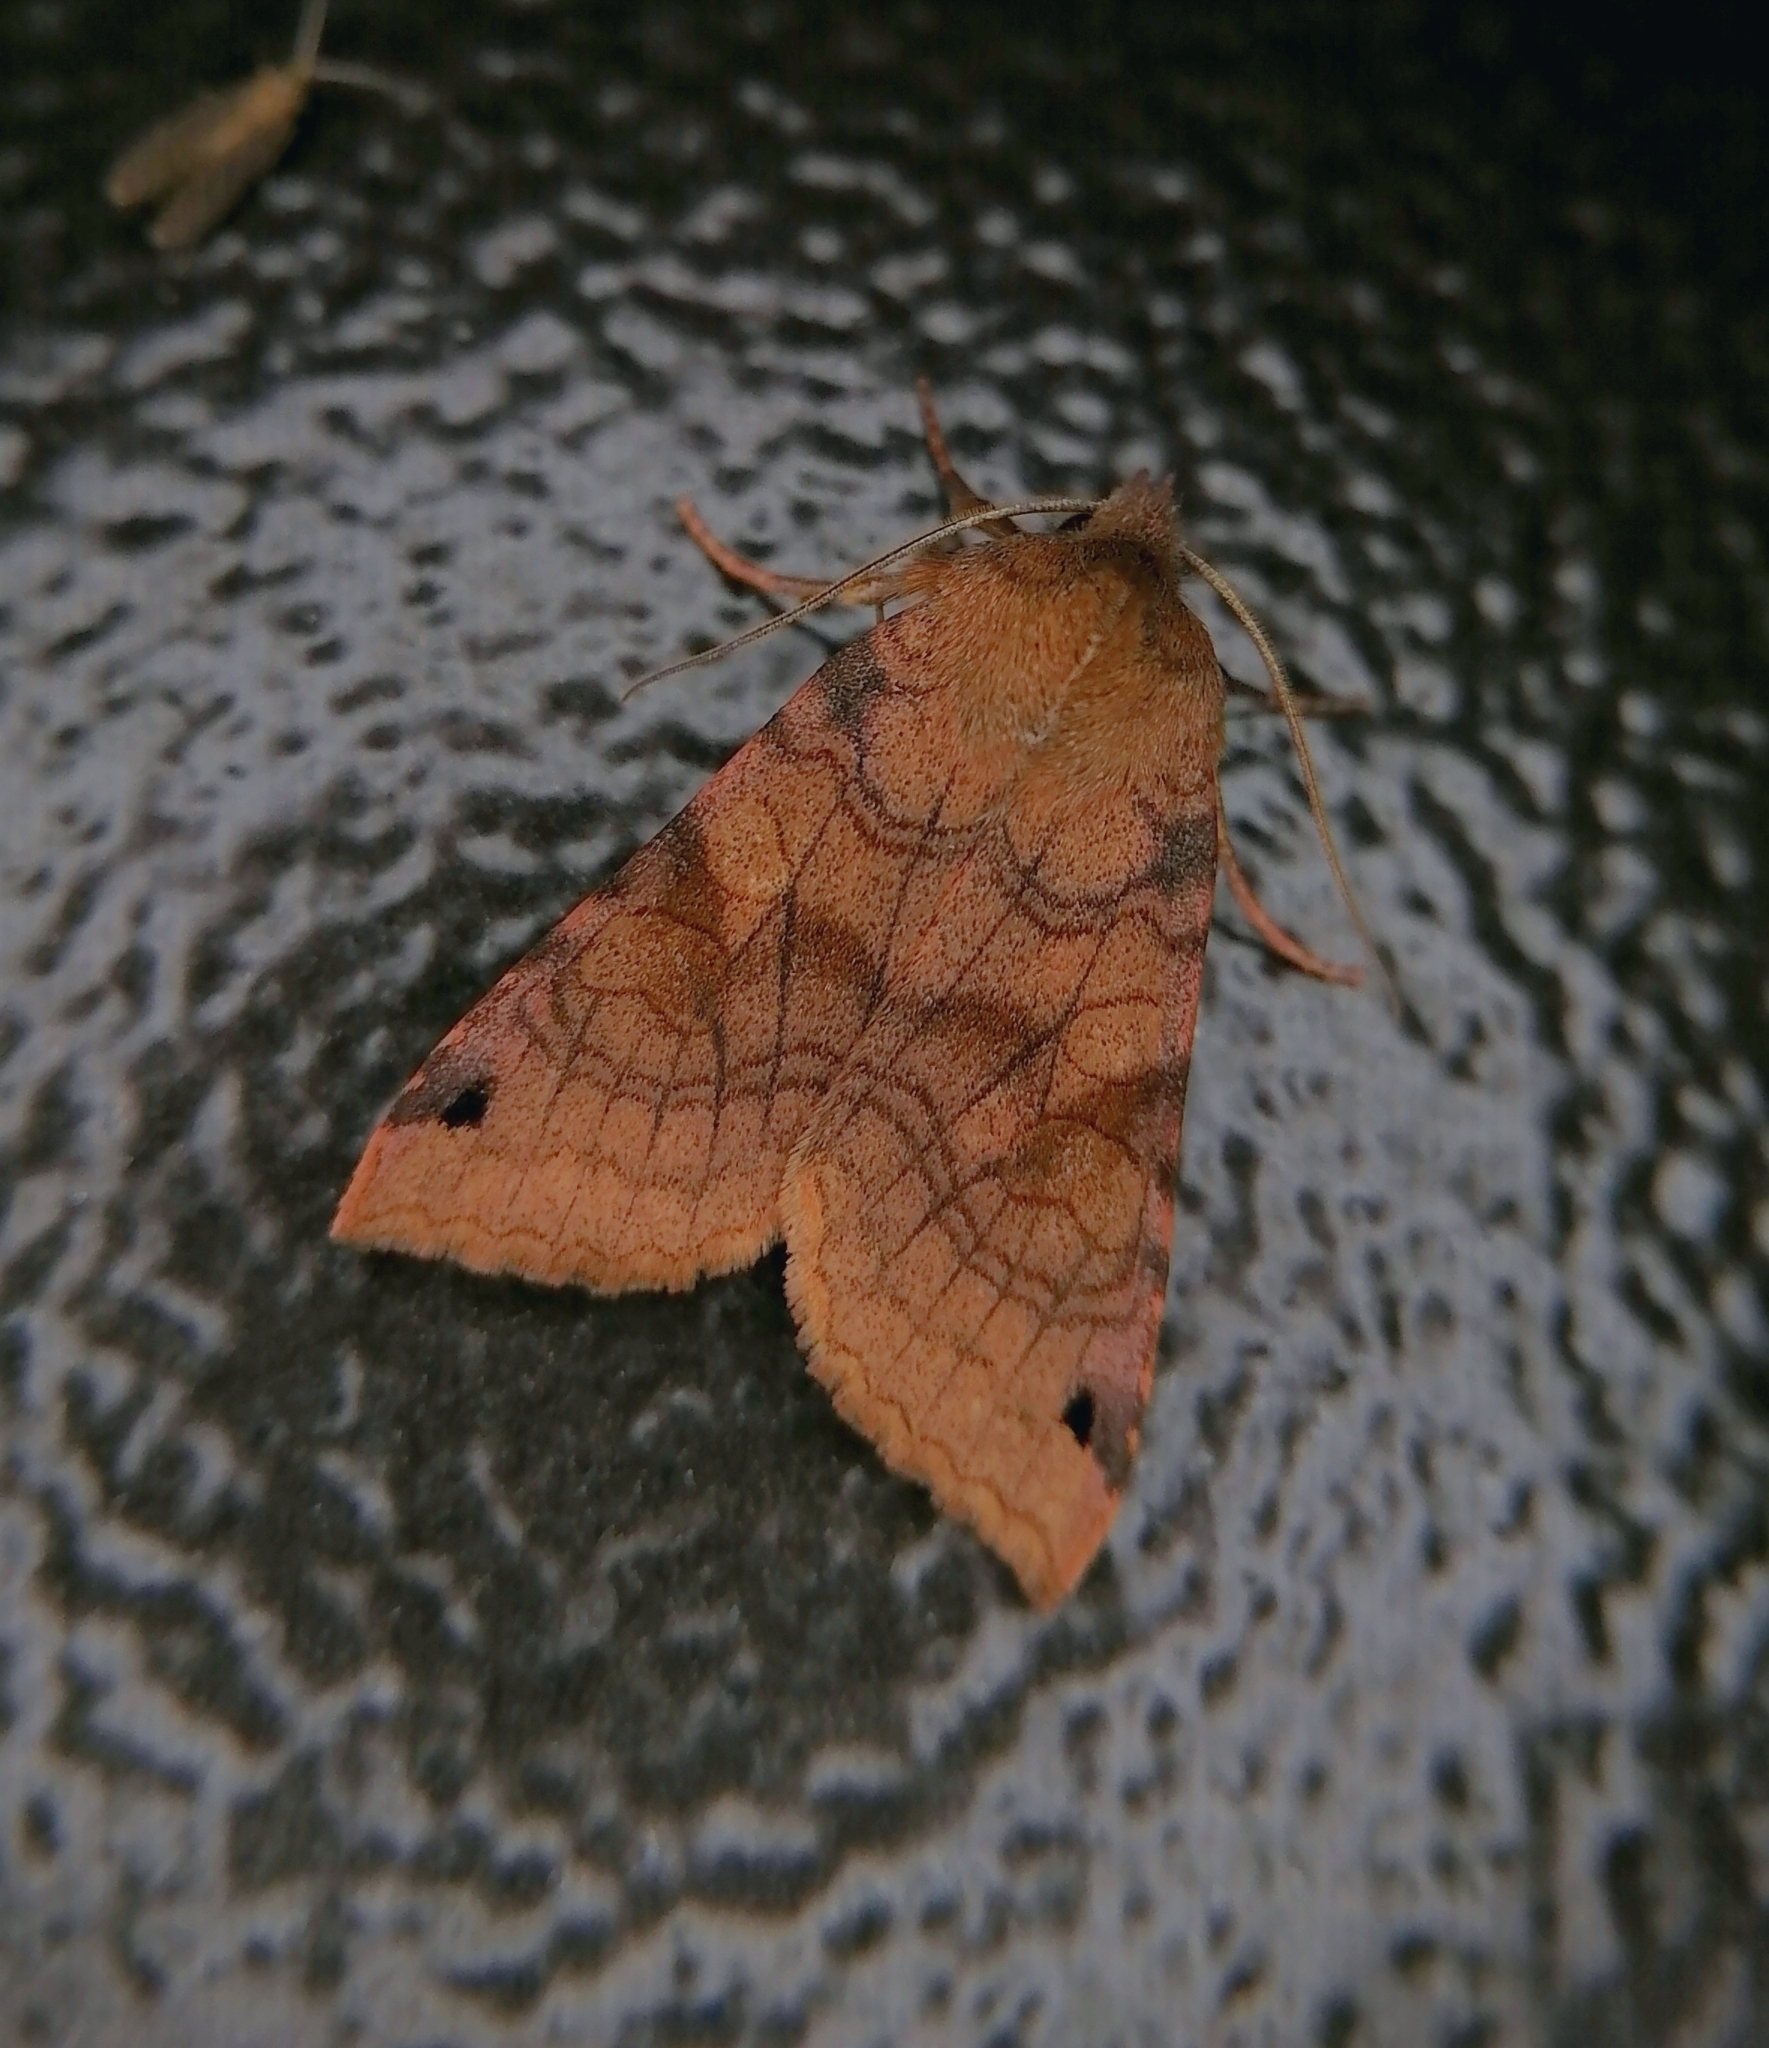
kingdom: Animalia
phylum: Arthropoda
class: Insecta
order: Lepidoptera
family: Noctuidae
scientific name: Noctuidae
